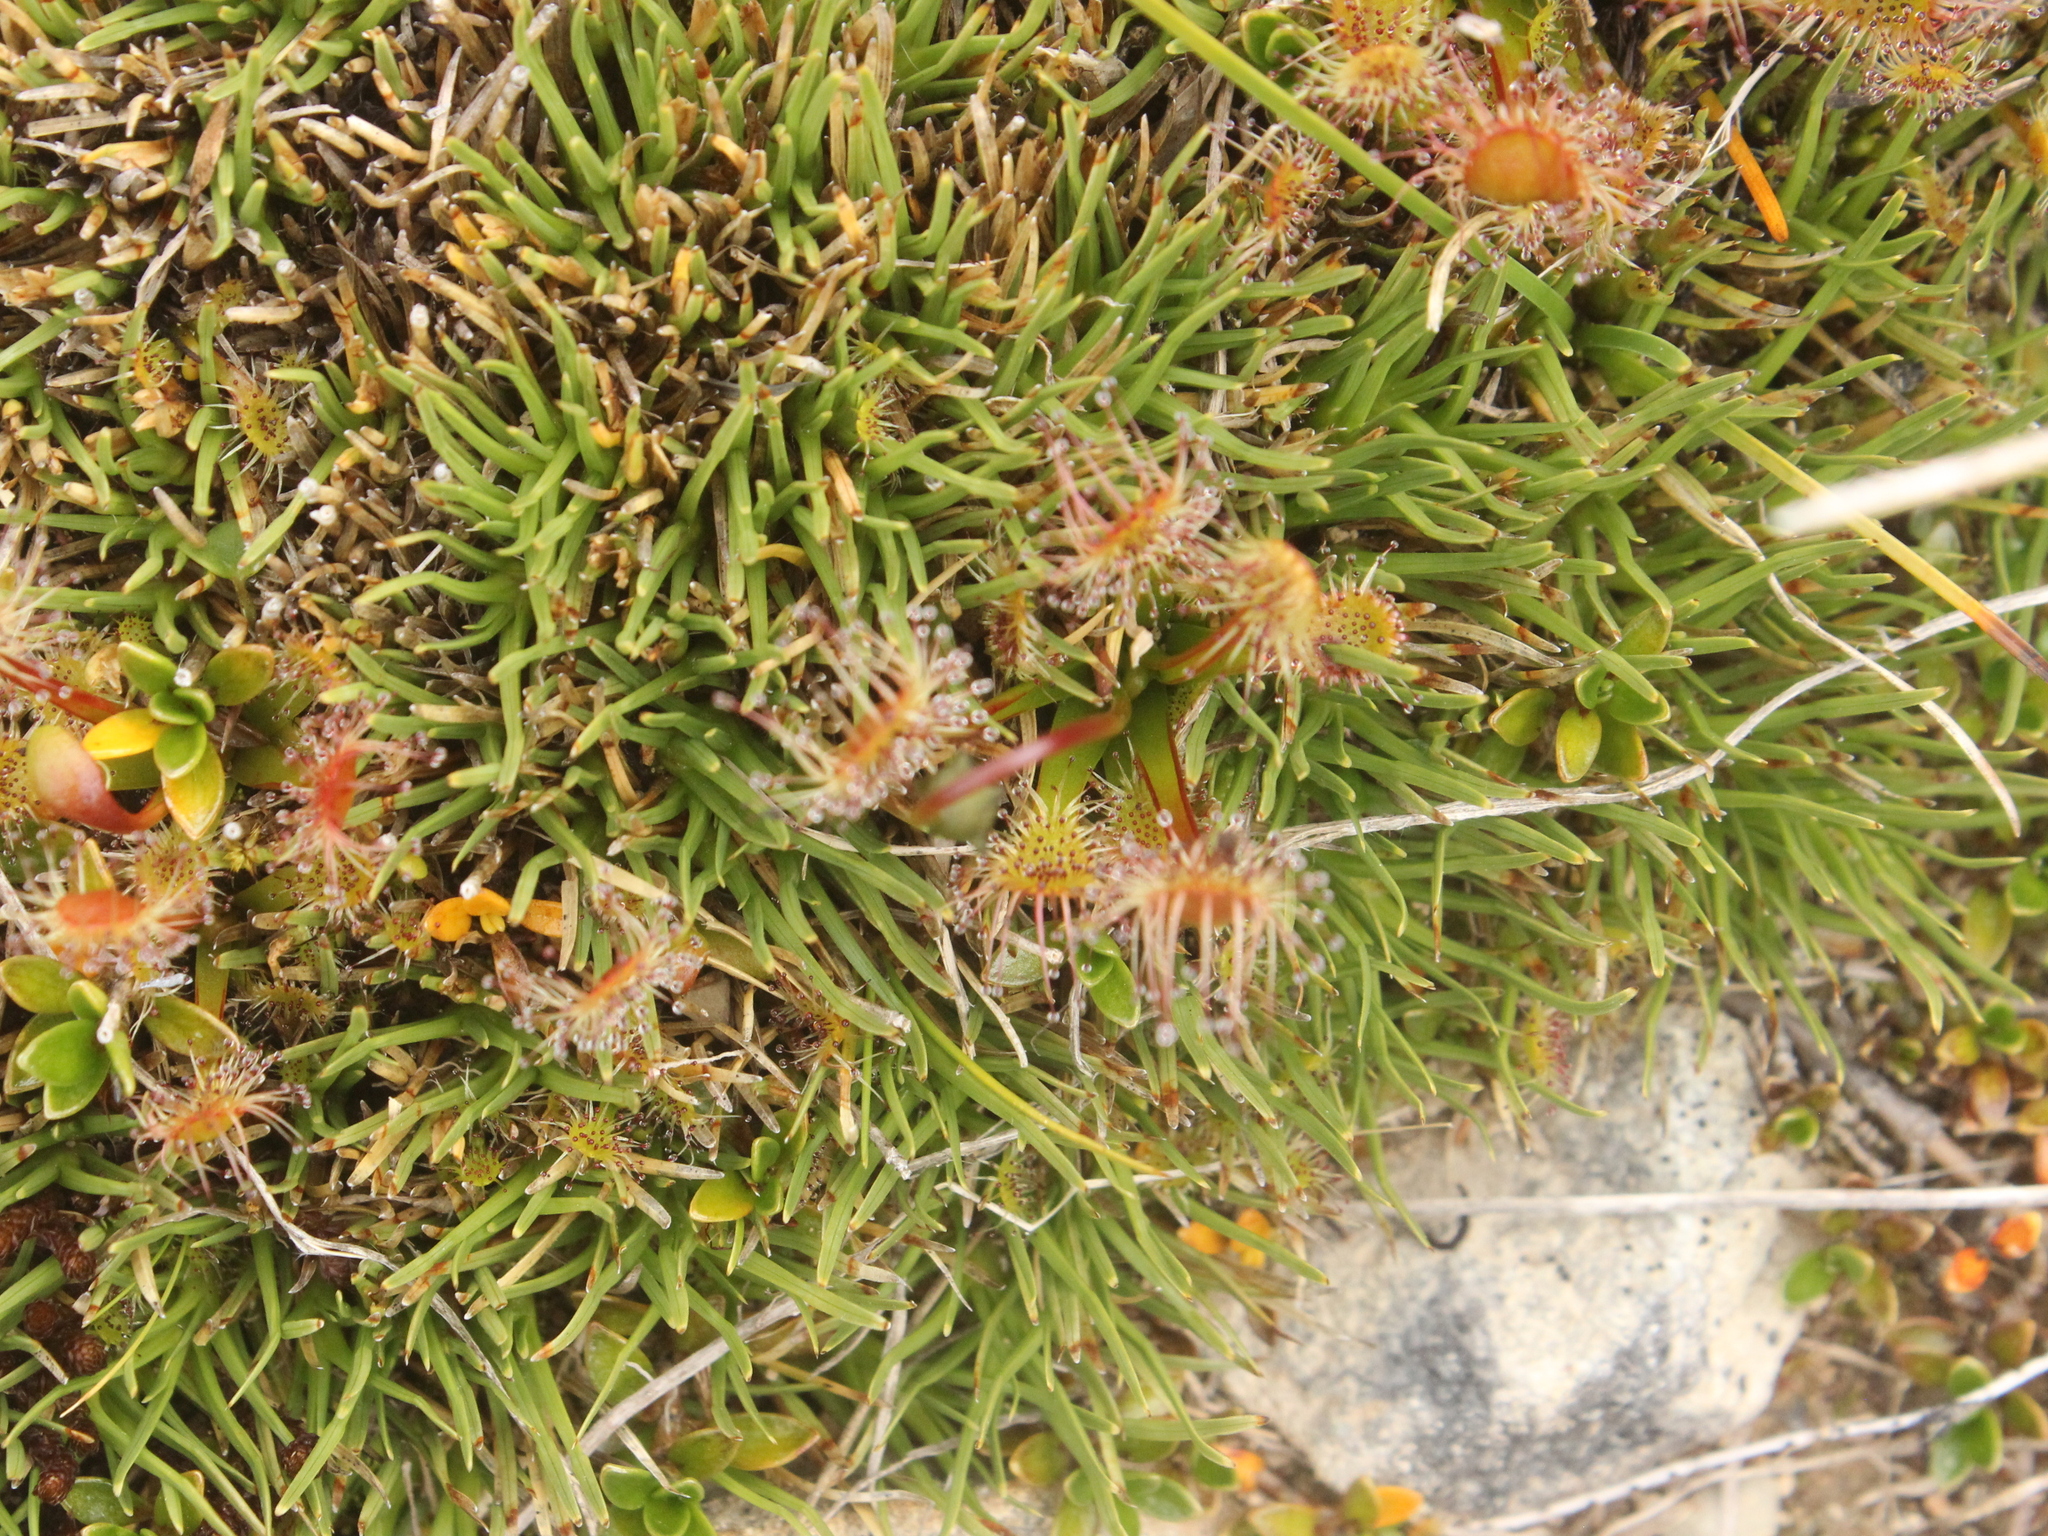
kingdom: Plantae
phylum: Tracheophyta
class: Magnoliopsida
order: Caryophyllales
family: Droseraceae
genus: Drosera
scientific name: Drosera stenopetala
